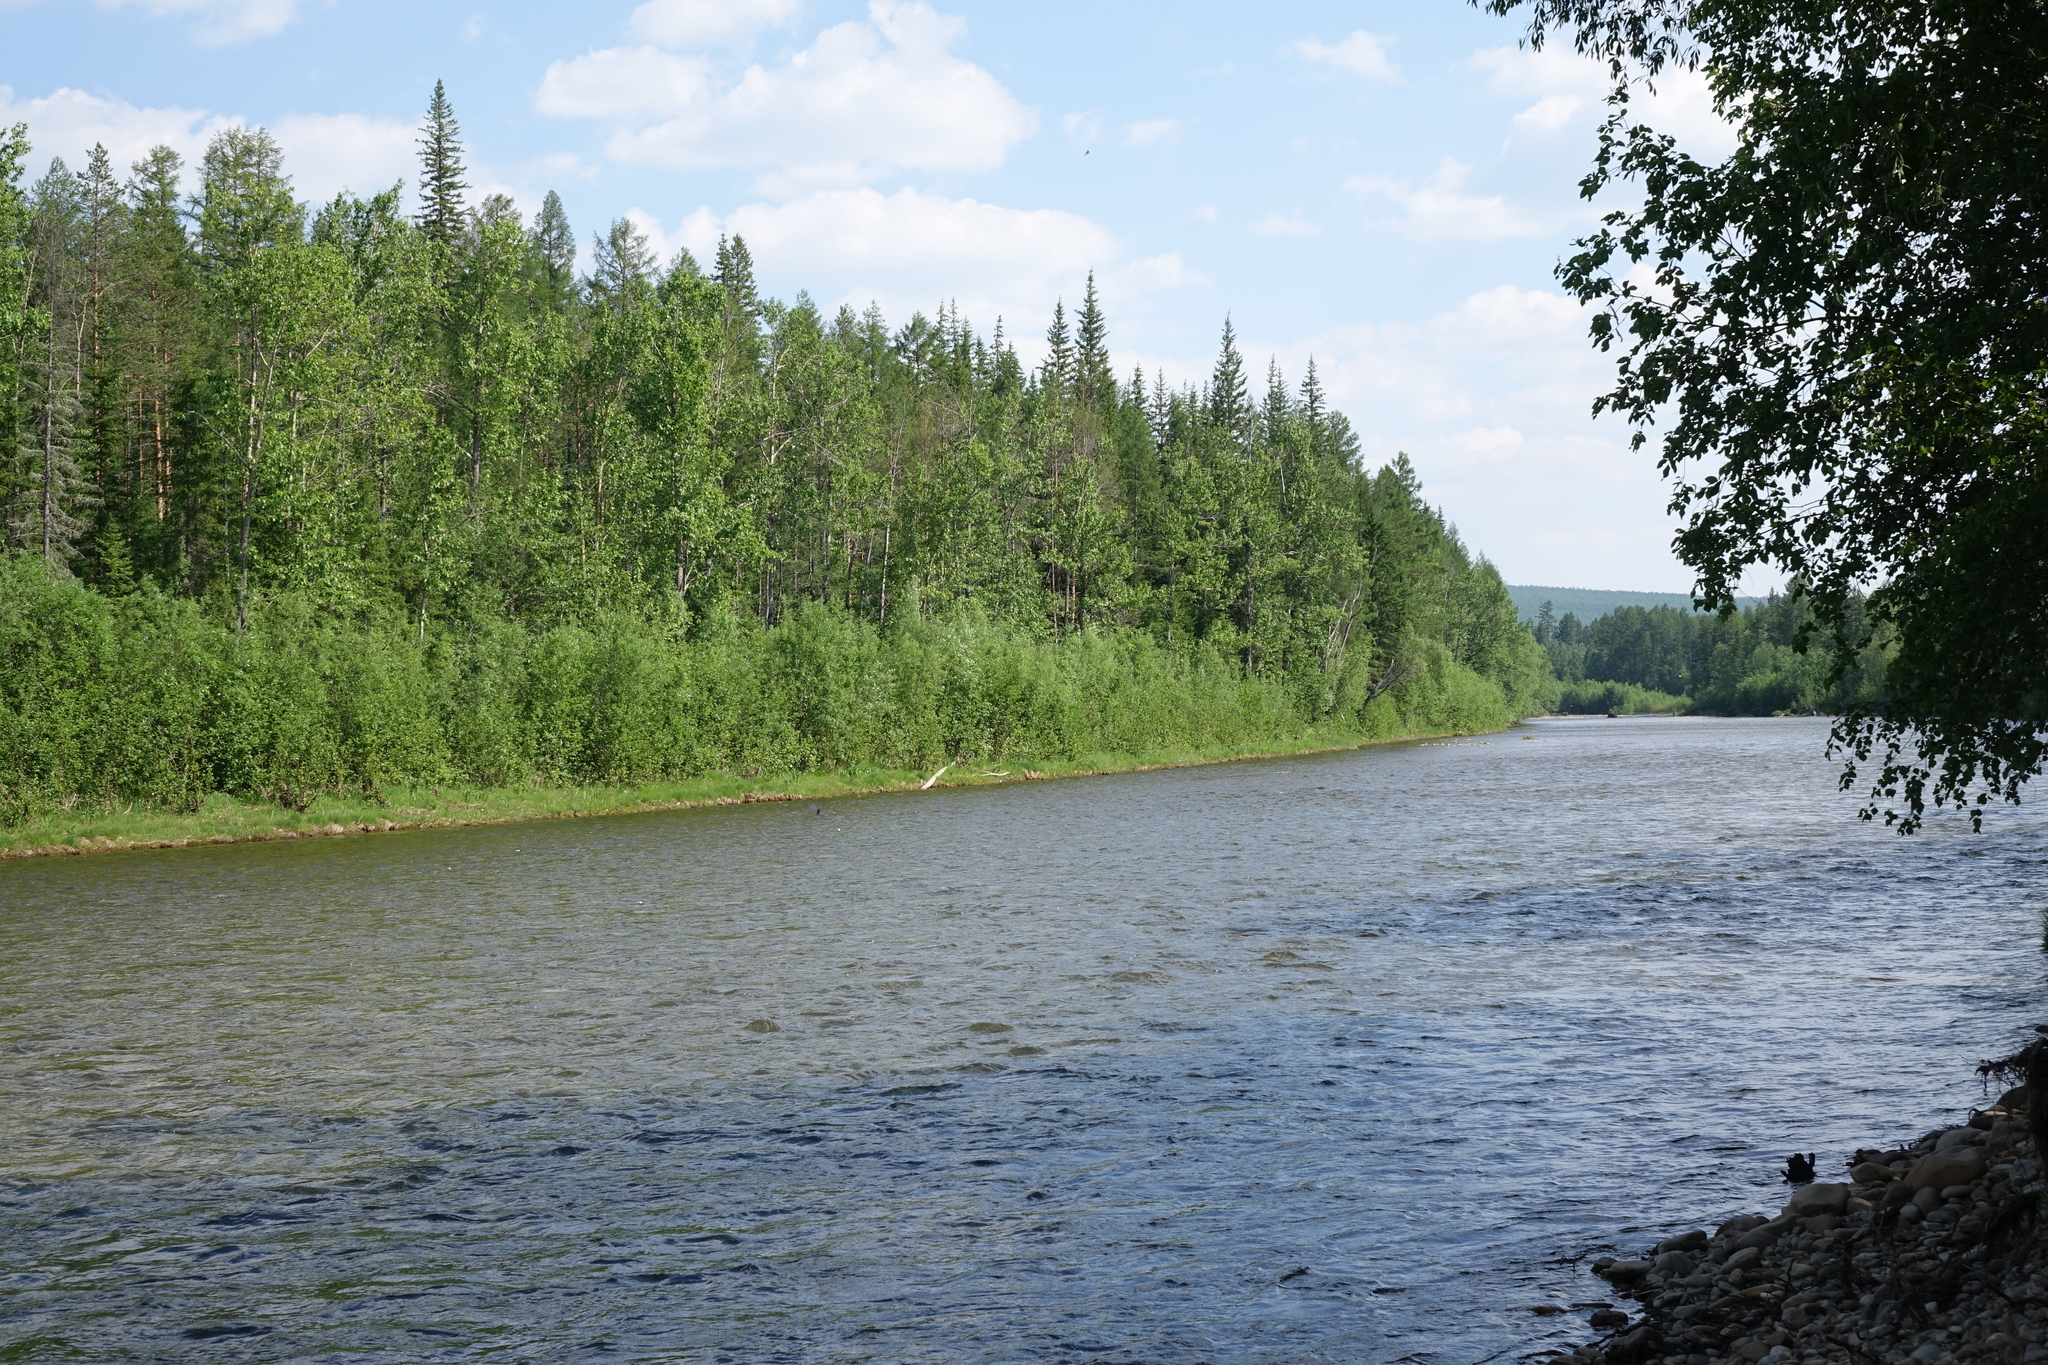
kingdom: Plantae
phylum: Tracheophyta
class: Pinopsida
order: Pinales
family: Pinaceae
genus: Picea
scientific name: Picea obovata
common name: Siberian spruce
